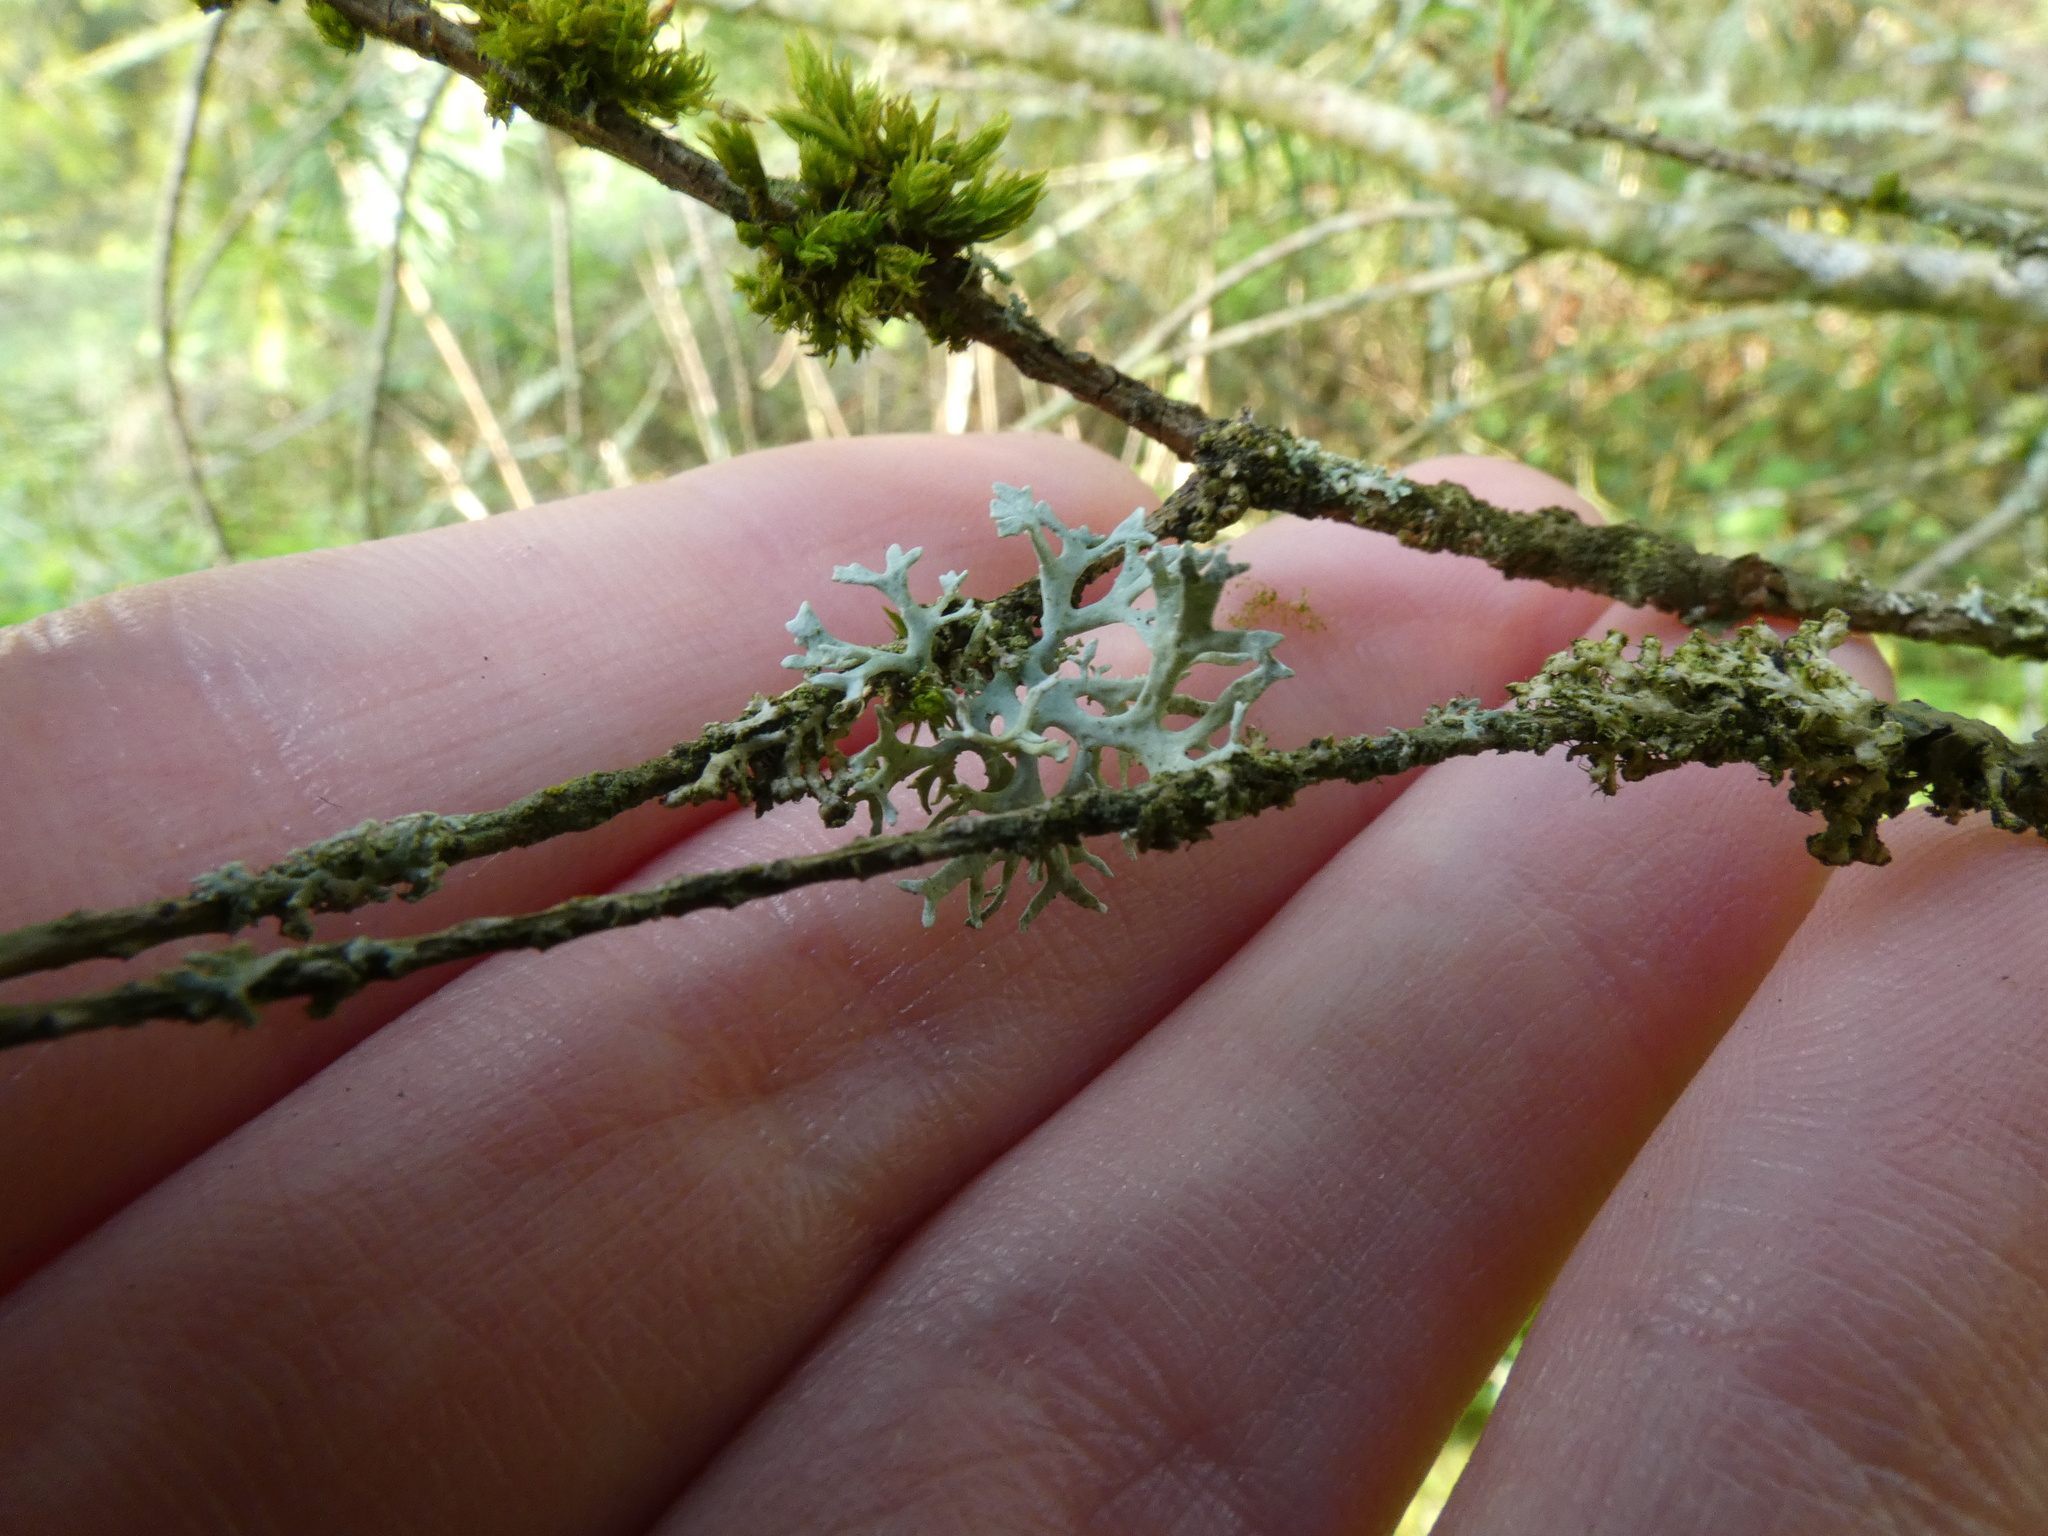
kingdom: Fungi
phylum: Ascomycota
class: Lecanoromycetes
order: Lecanorales
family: Parmeliaceae
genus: Evernia
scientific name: Evernia prunastri
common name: Oak moss
